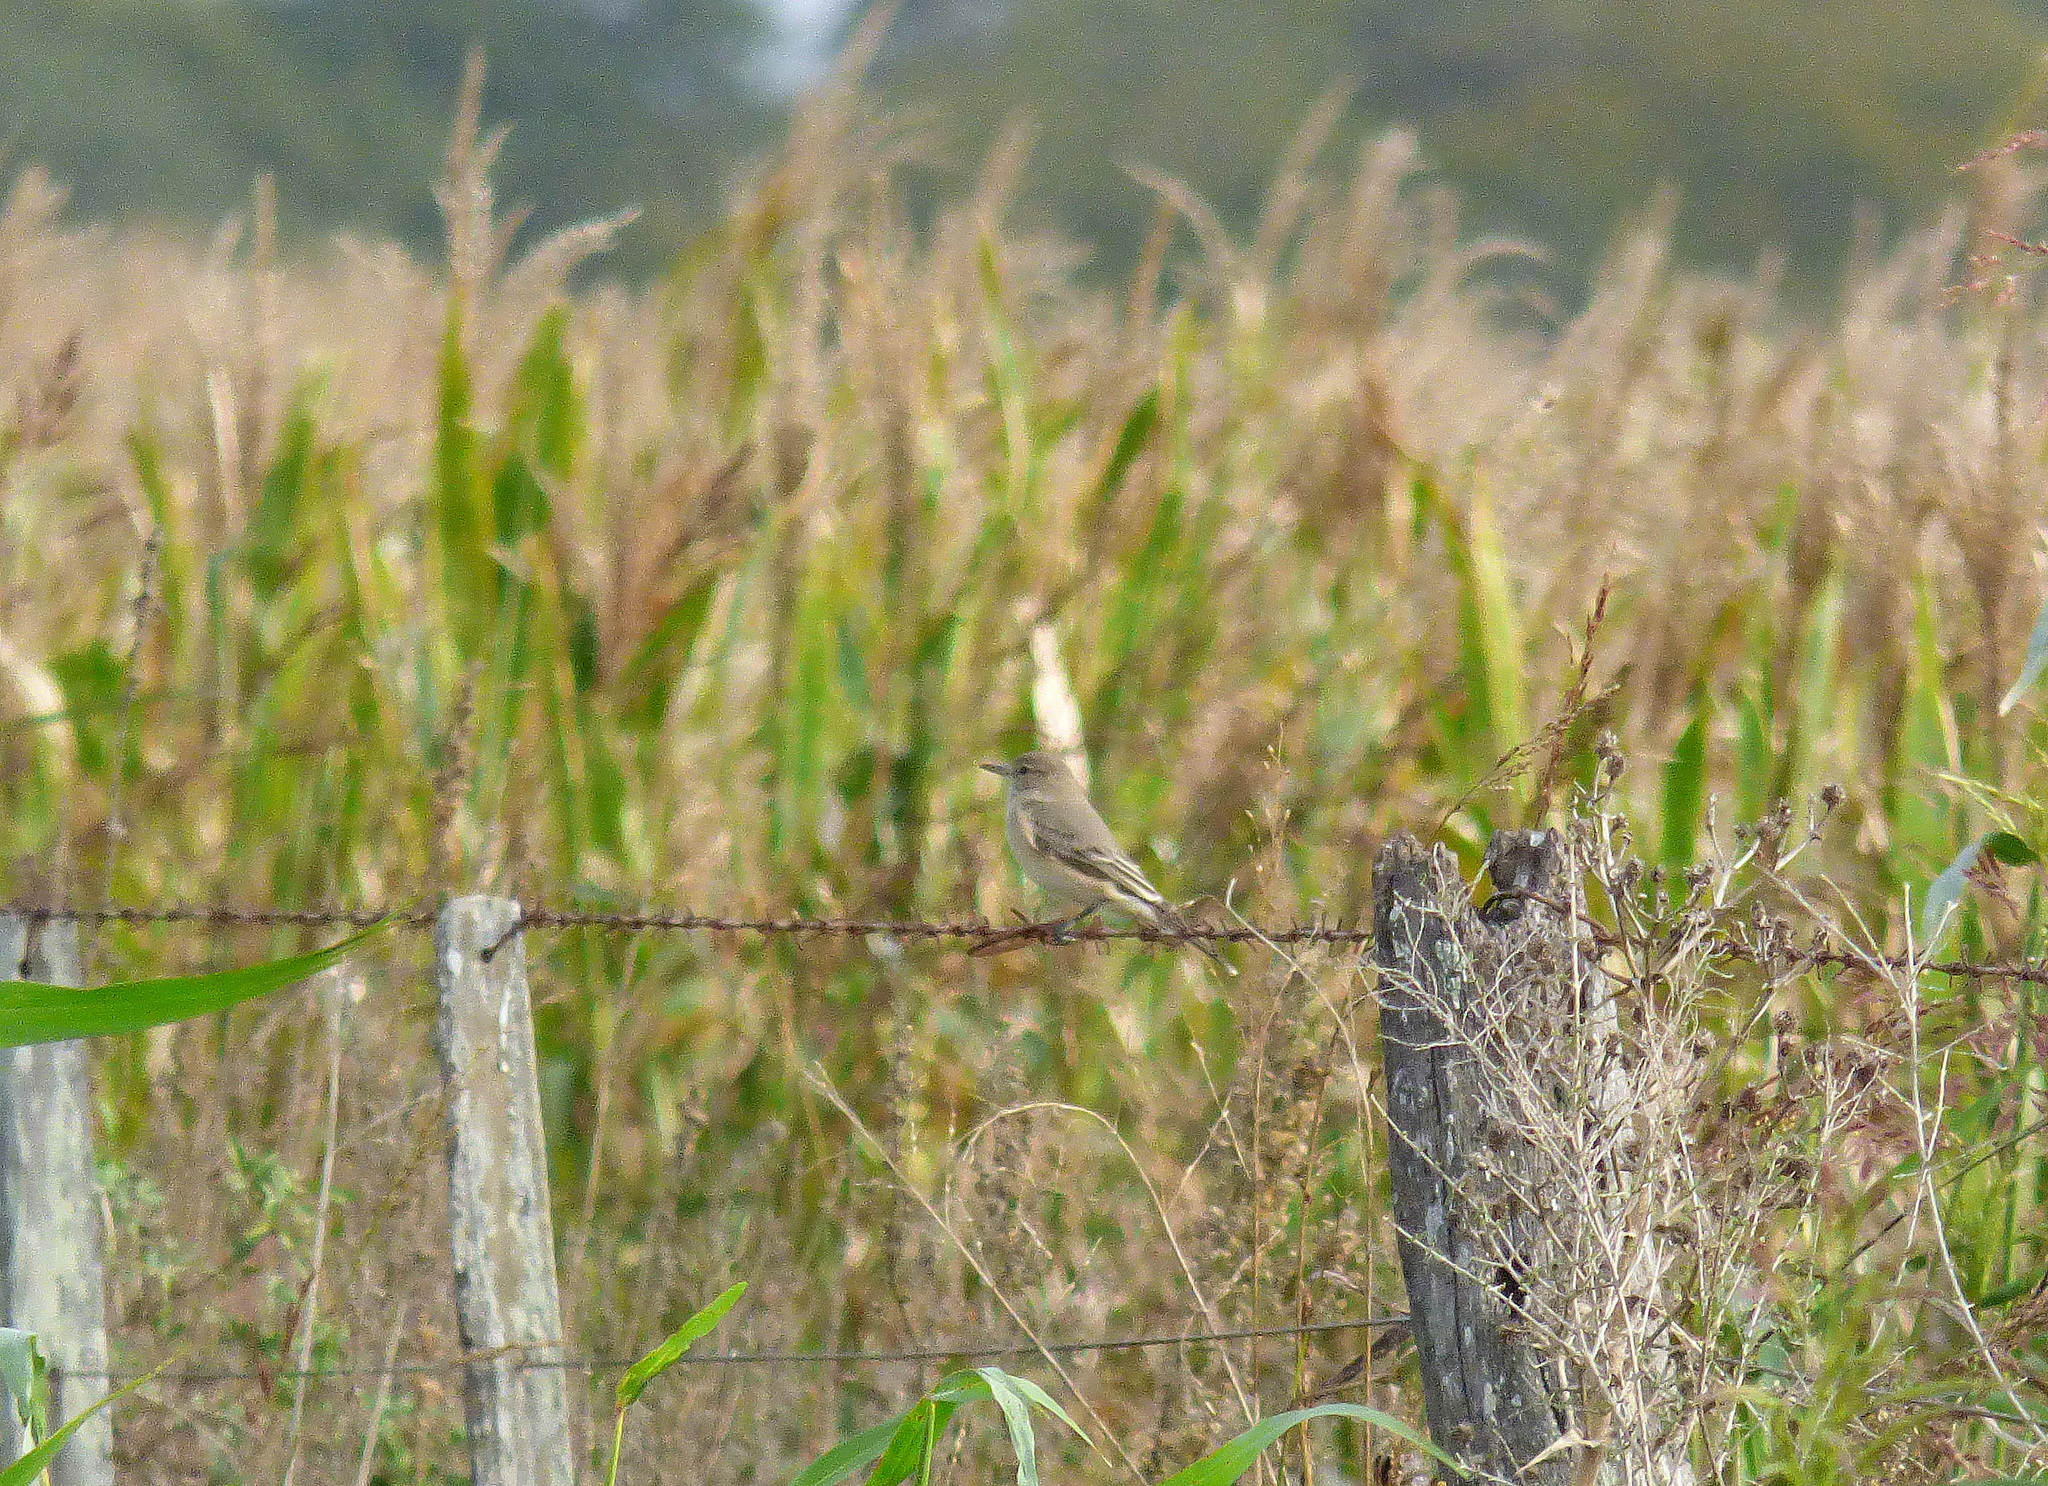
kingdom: Animalia
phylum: Chordata
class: Aves
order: Passeriformes
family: Tyrannidae
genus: Agriornis
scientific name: Agriornis murinus
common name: Lesser shrike-tyrant
